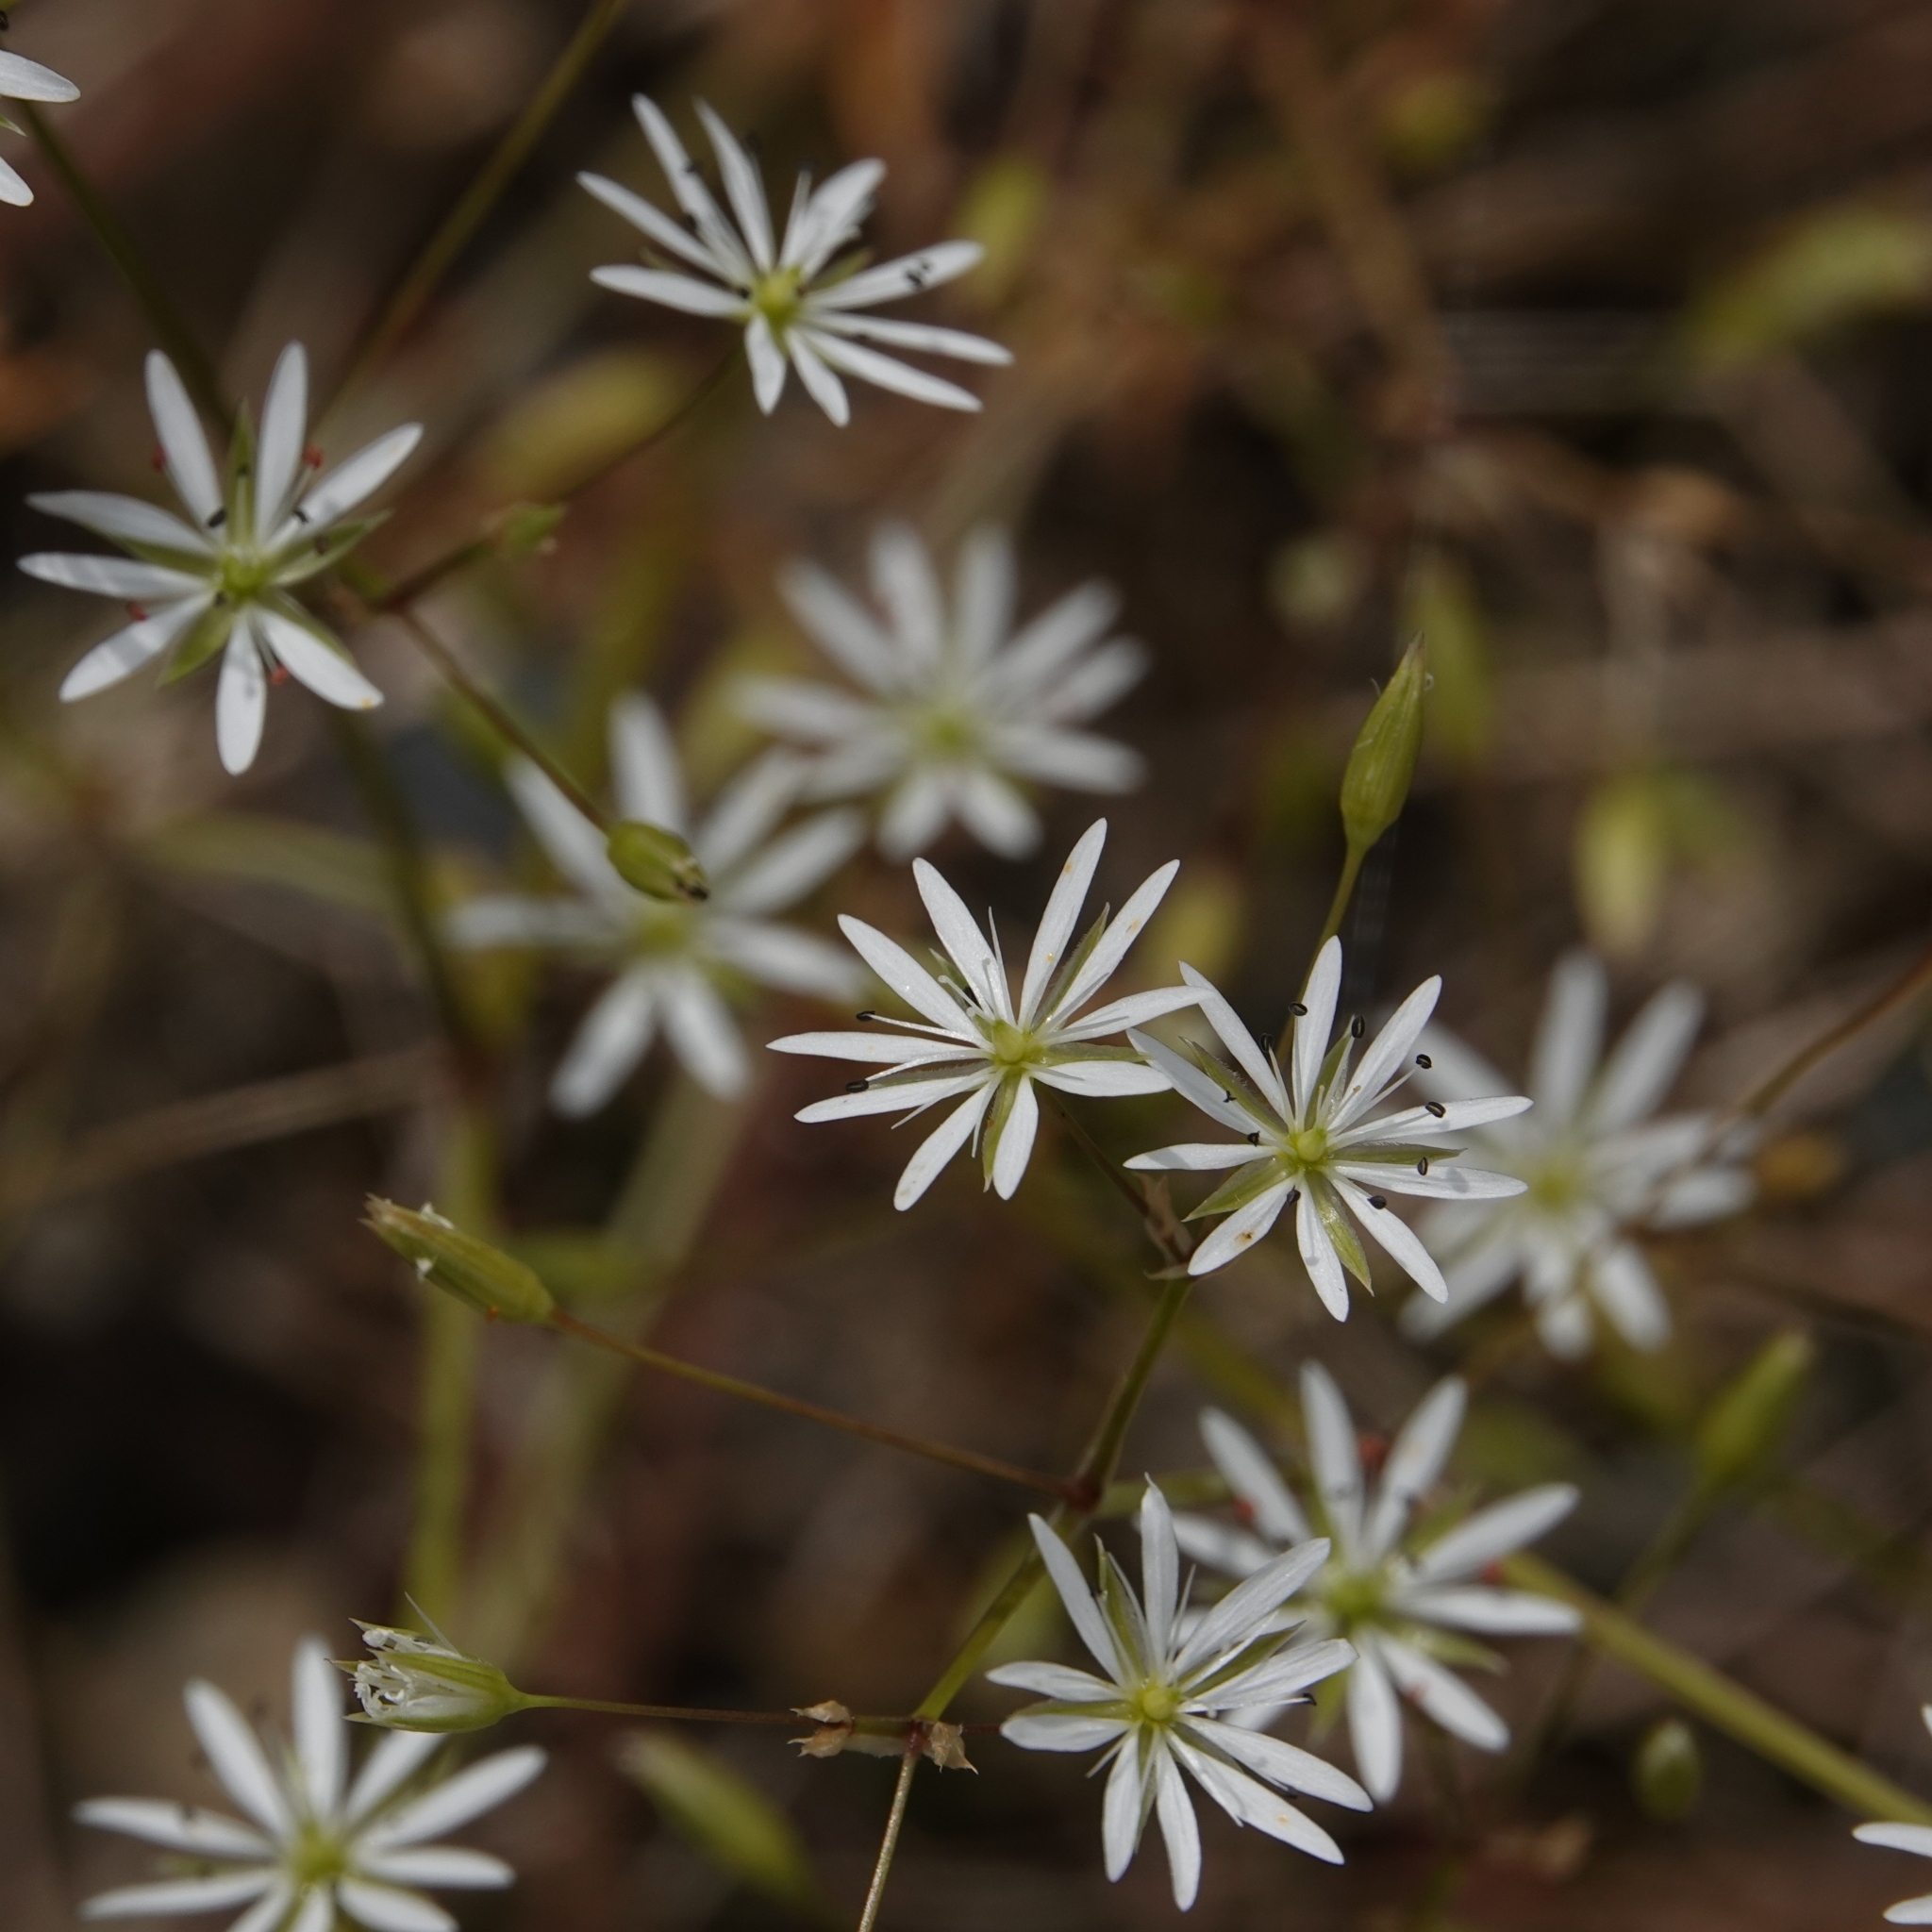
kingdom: Plantae
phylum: Tracheophyta
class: Magnoliopsida
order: Caryophyllales
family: Caryophyllaceae
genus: Stellaria
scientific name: Stellaria graminea
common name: Grass-like starwort
